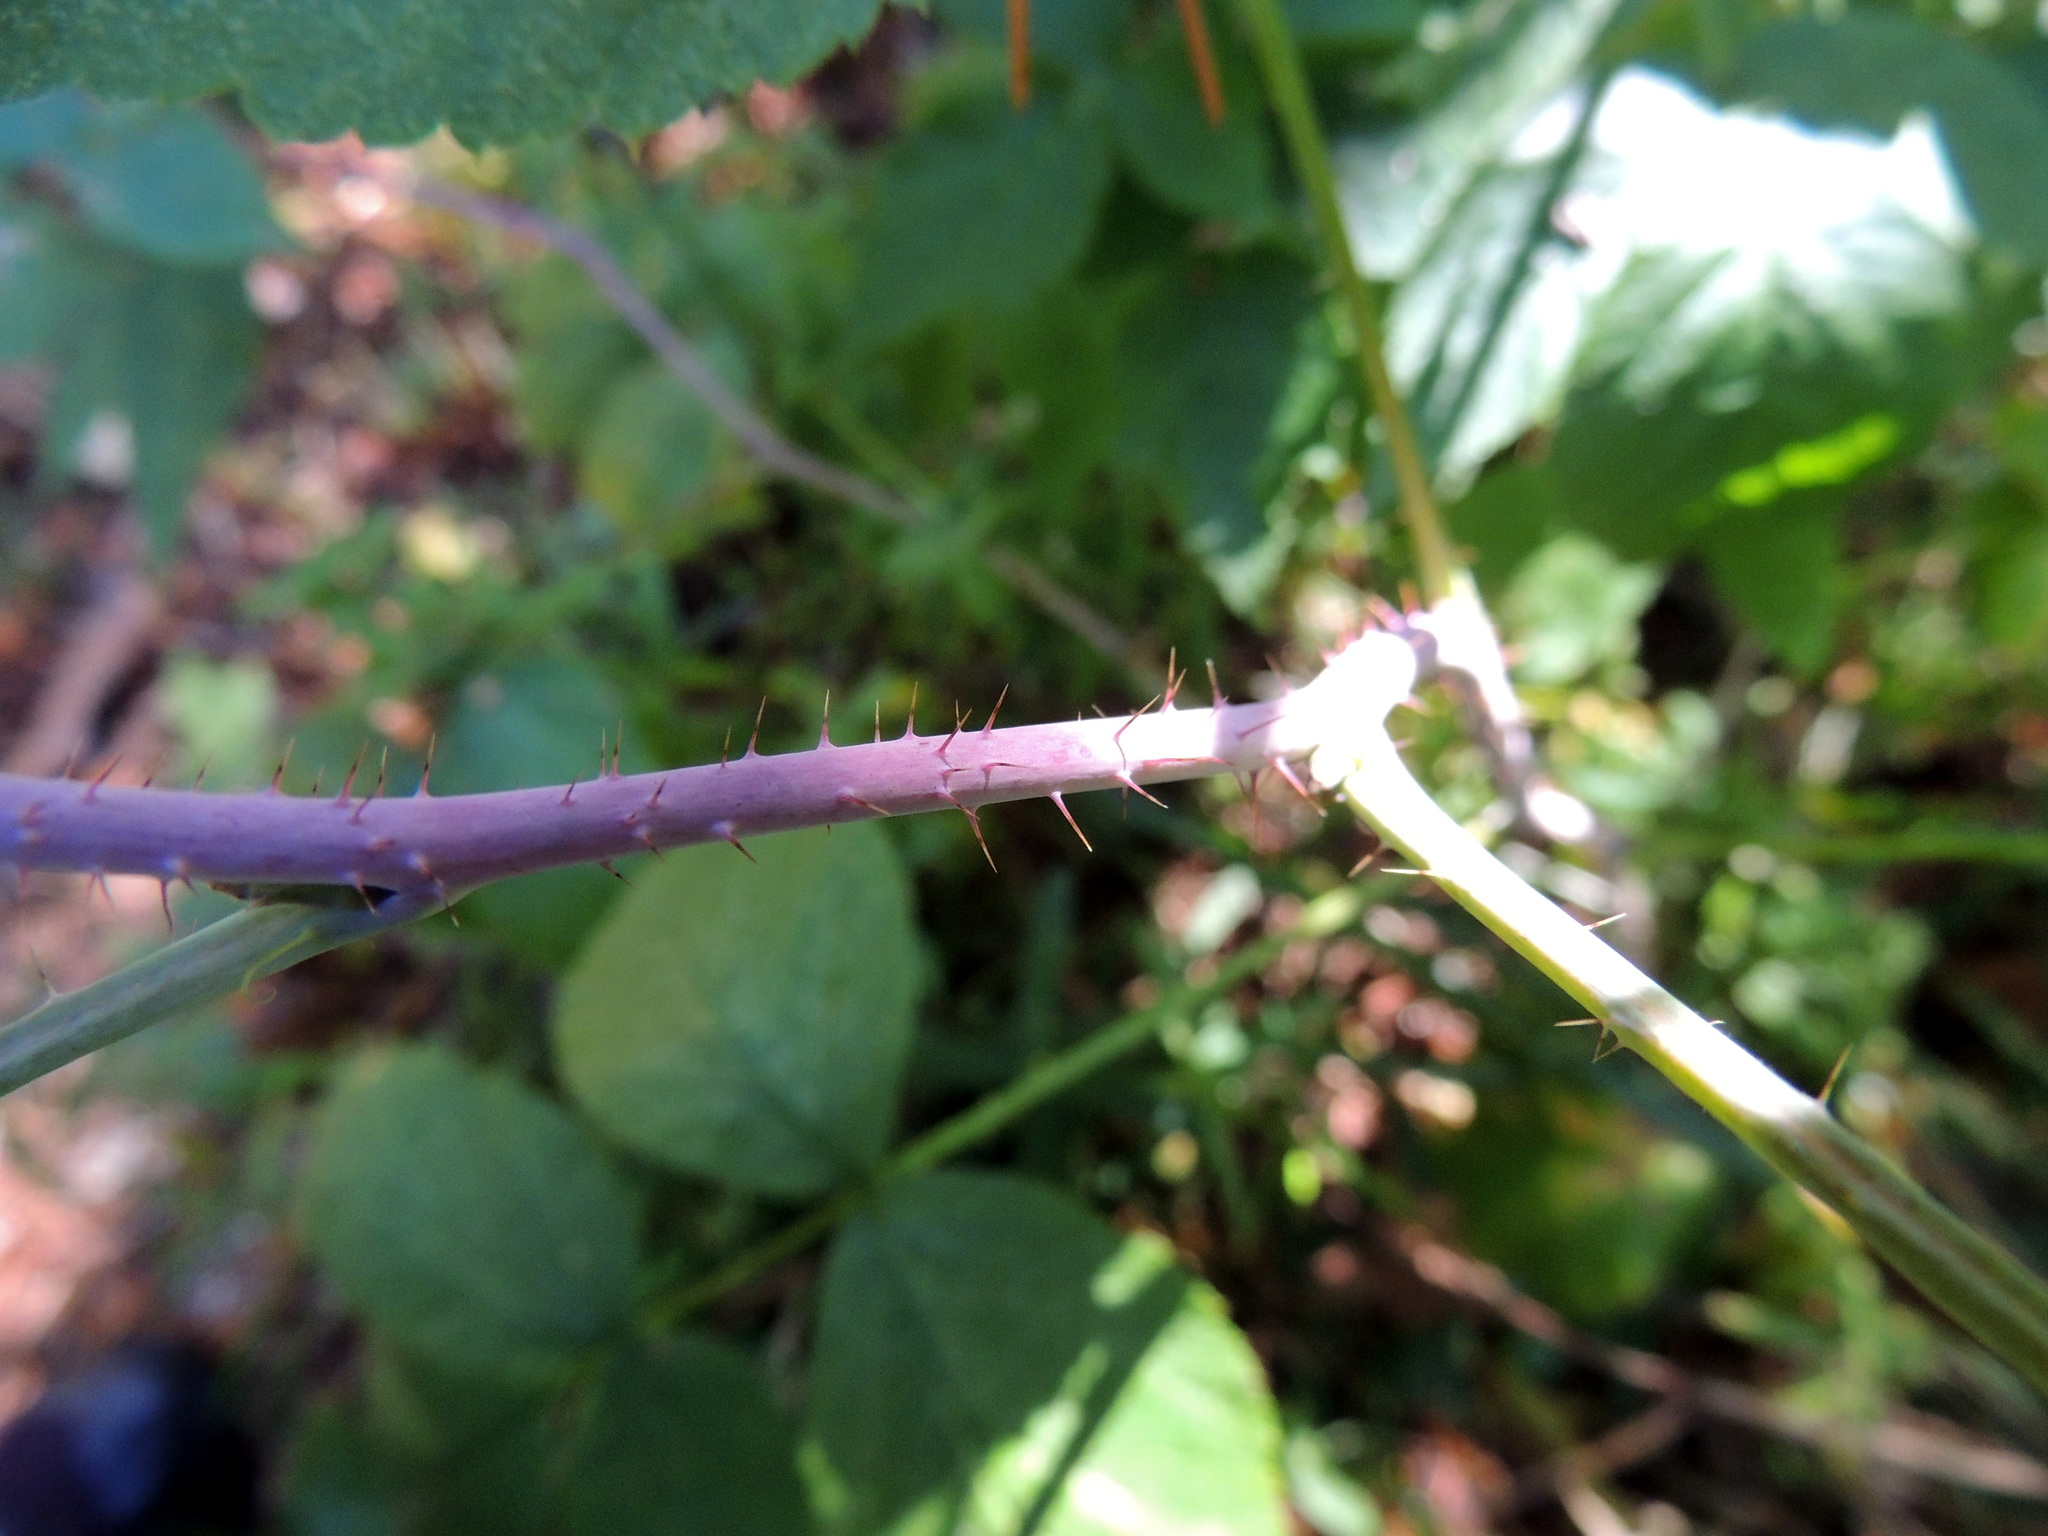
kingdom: Plantae
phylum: Tracheophyta
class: Magnoliopsida
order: Rosales
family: Rosaceae
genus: Rubus
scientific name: Rubus idaeus
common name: Raspberry
